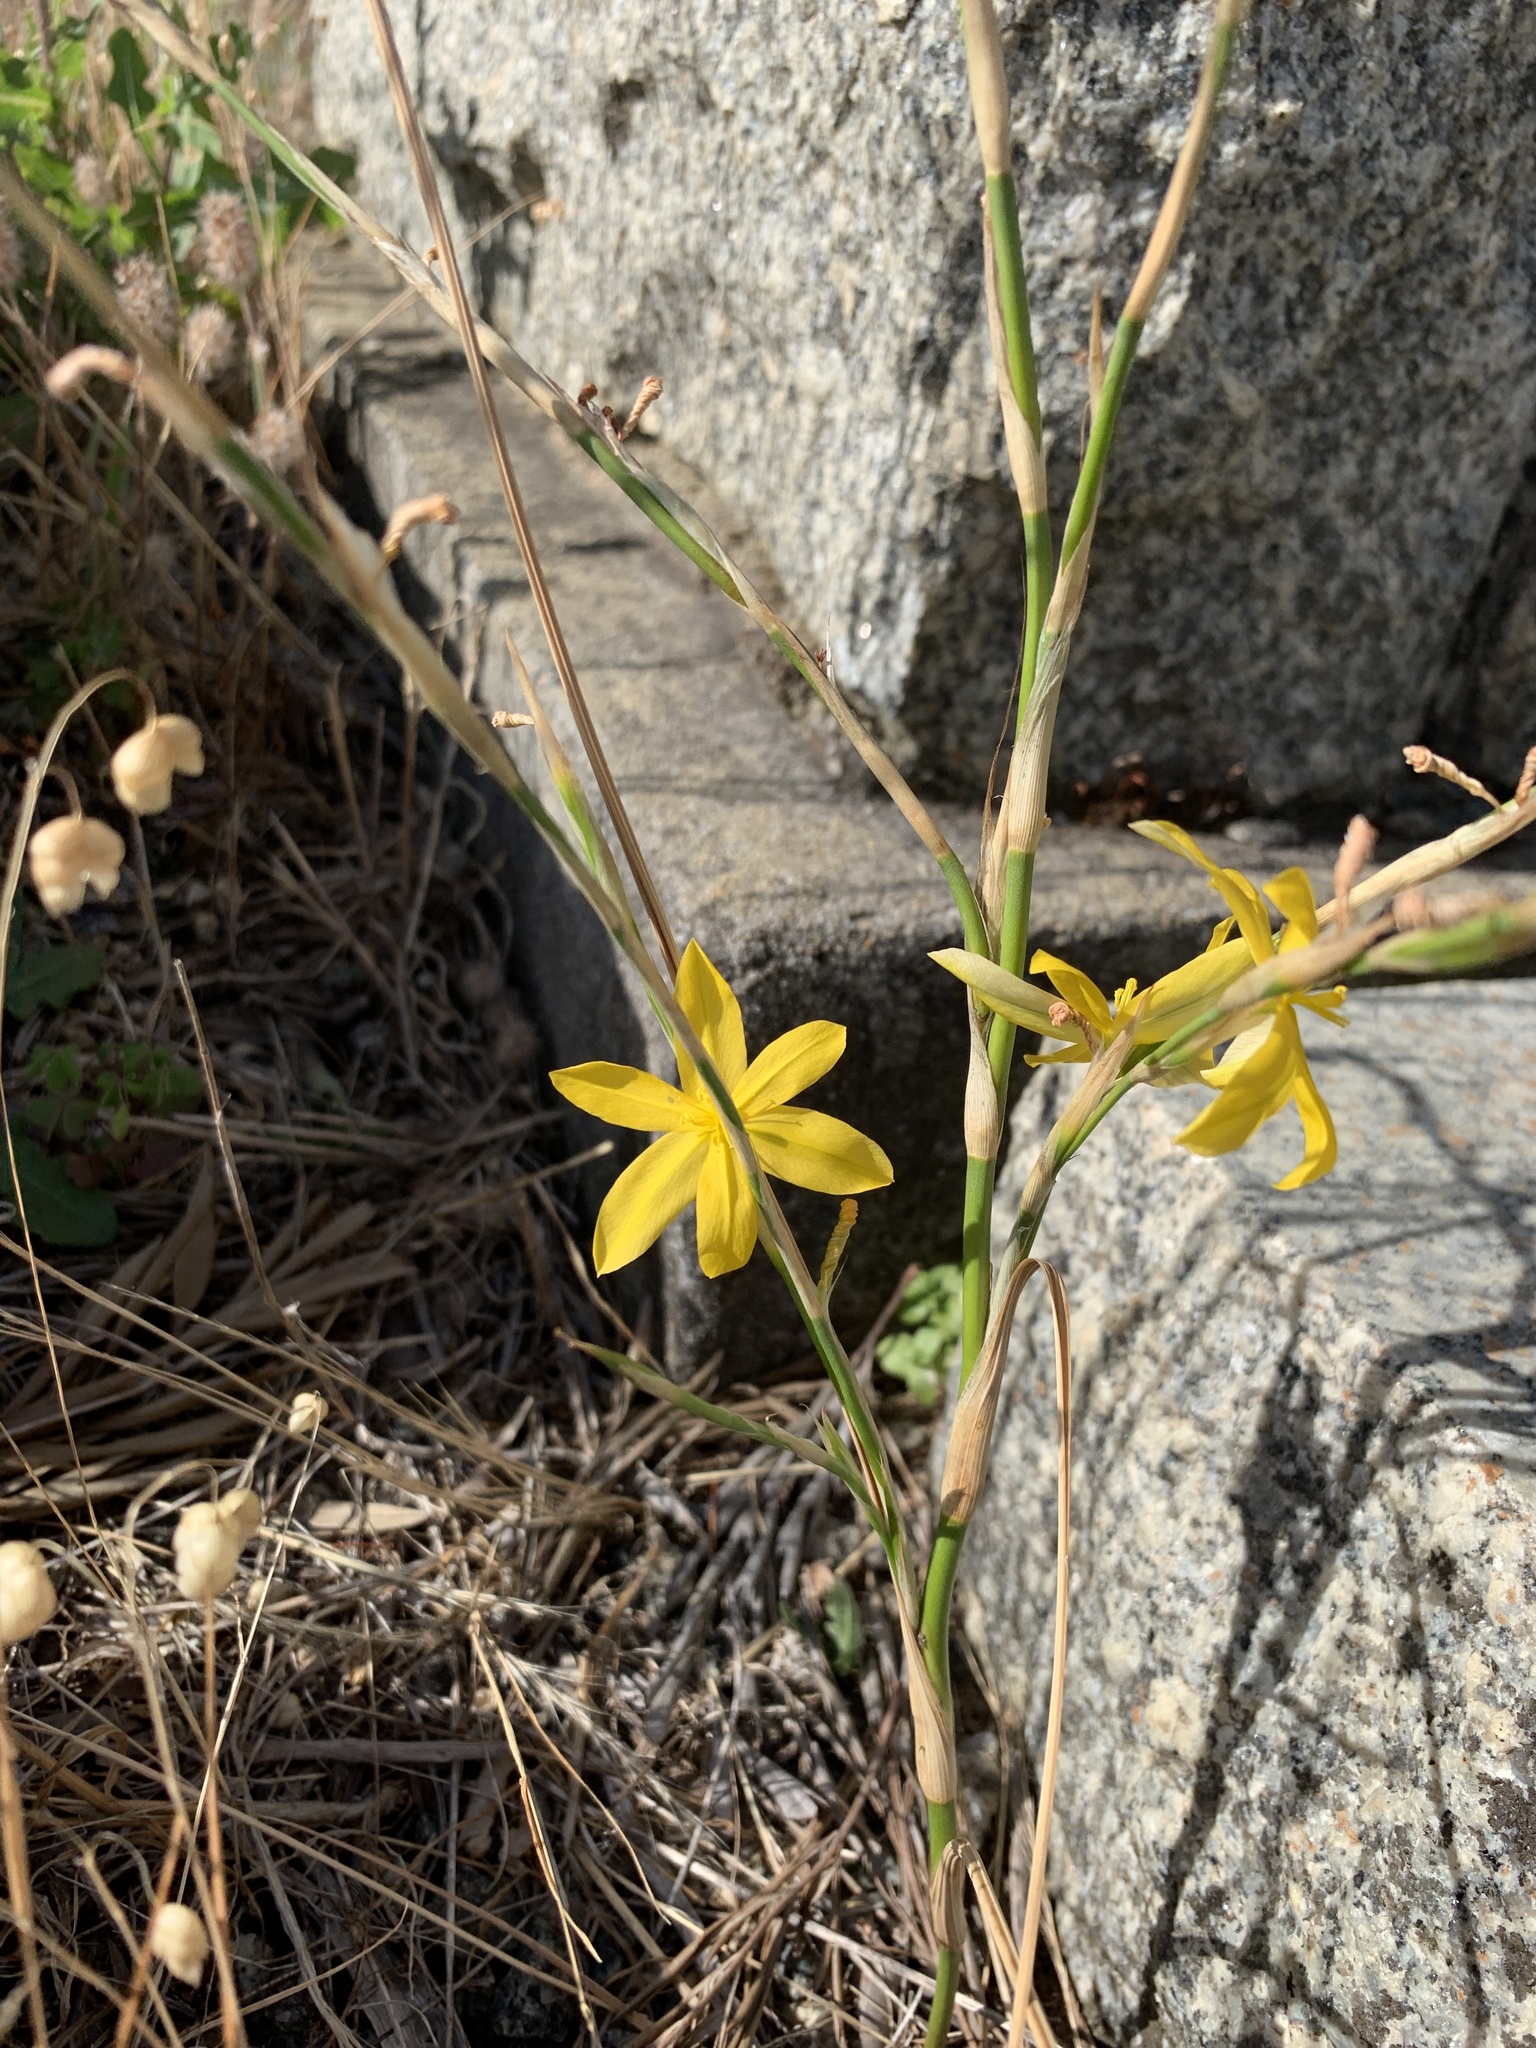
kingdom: Plantae
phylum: Tracheophyta
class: Liliopsida
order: Asparagales
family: Iridaceae
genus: Moraea
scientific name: Moraea virgata
